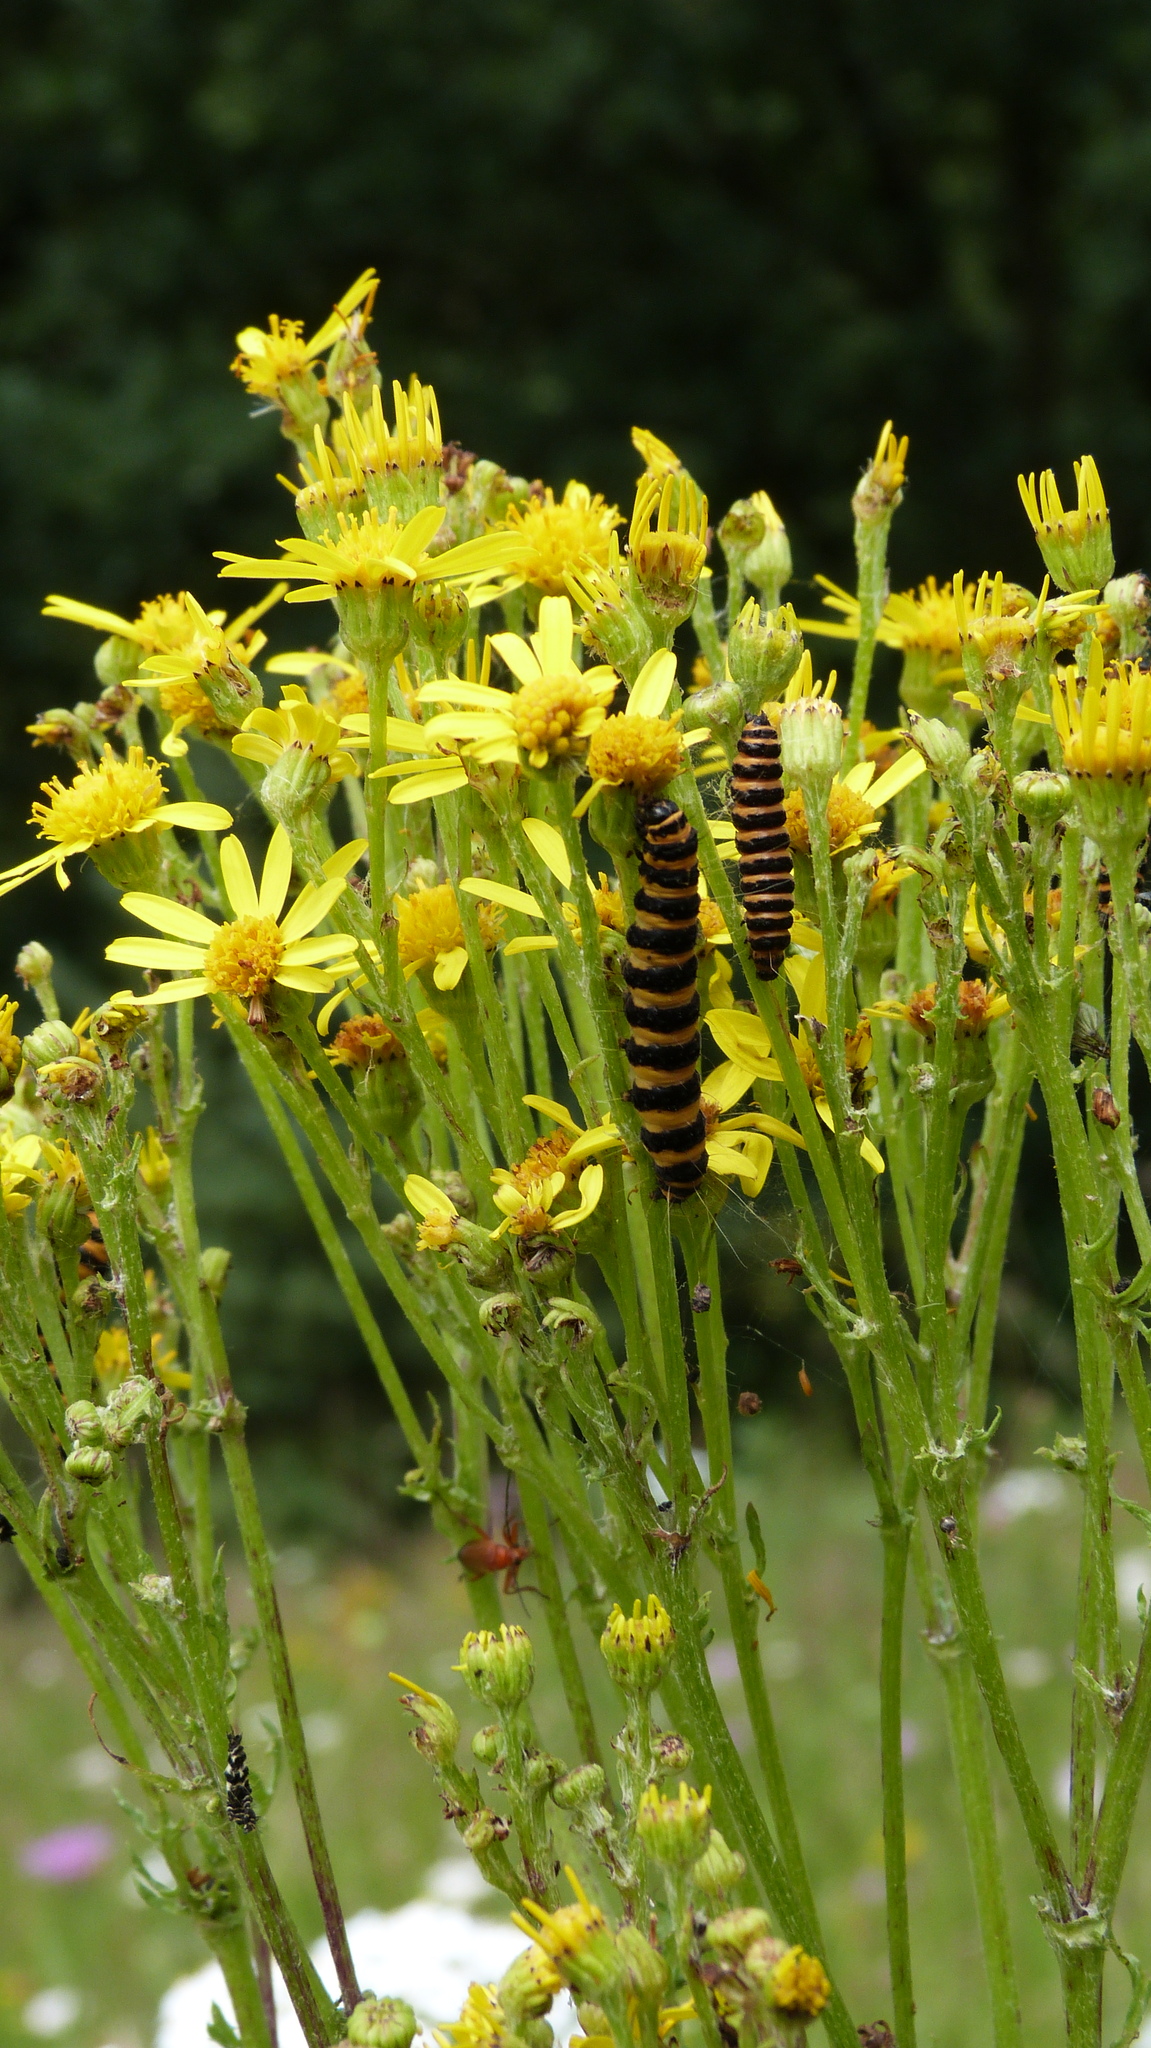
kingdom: Animalia
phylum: Arthropoda
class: Insecta
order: Lepidoptera
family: Erebidae
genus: Tyria
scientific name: Tyria jacobaeae
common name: Cinnabar
